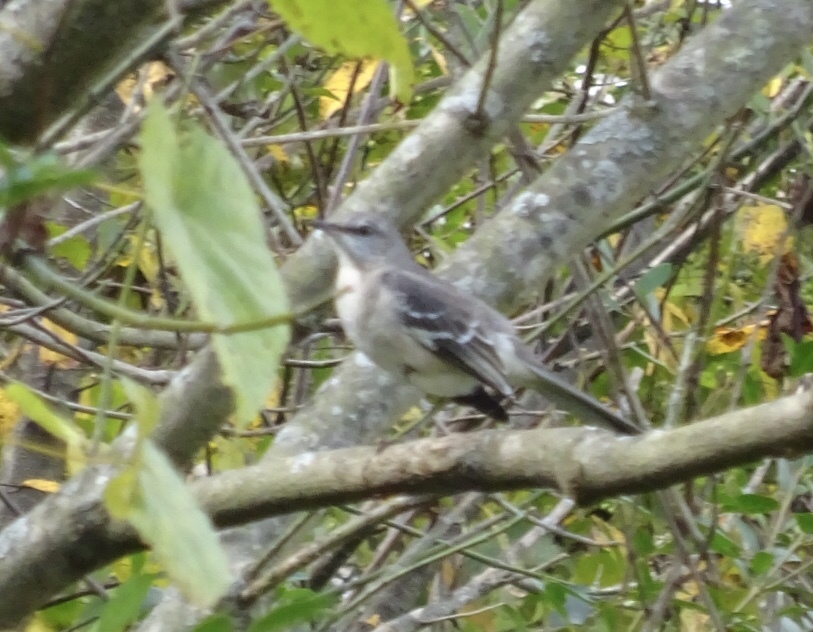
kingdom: Animalia
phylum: Chordata
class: Aves
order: Passeriformes
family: Mimidae
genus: Mimus
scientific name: Mimus polyglottos
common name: Northern mockingbird
